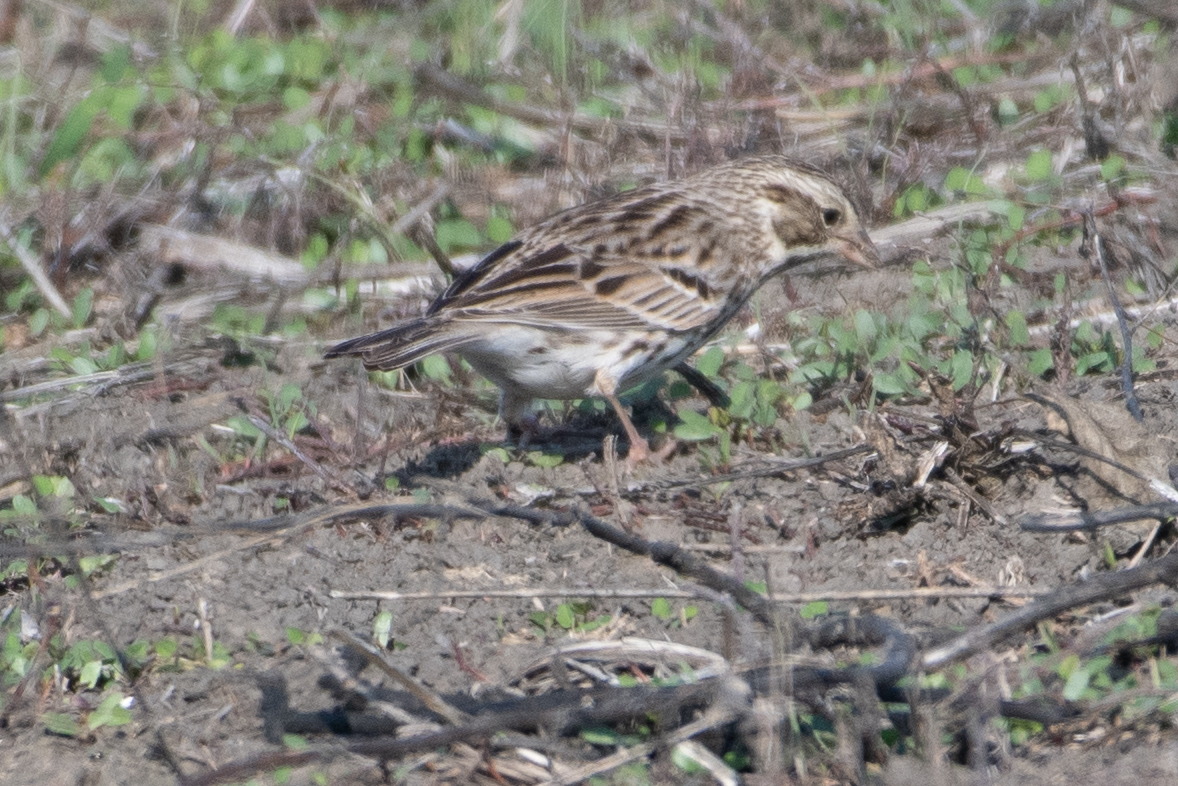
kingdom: Animalia
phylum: Chordata
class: Aves
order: Passeriformes
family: Passerellidae
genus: Passerculus
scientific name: Passerculus sandwichensis
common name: Savannah sparrow
